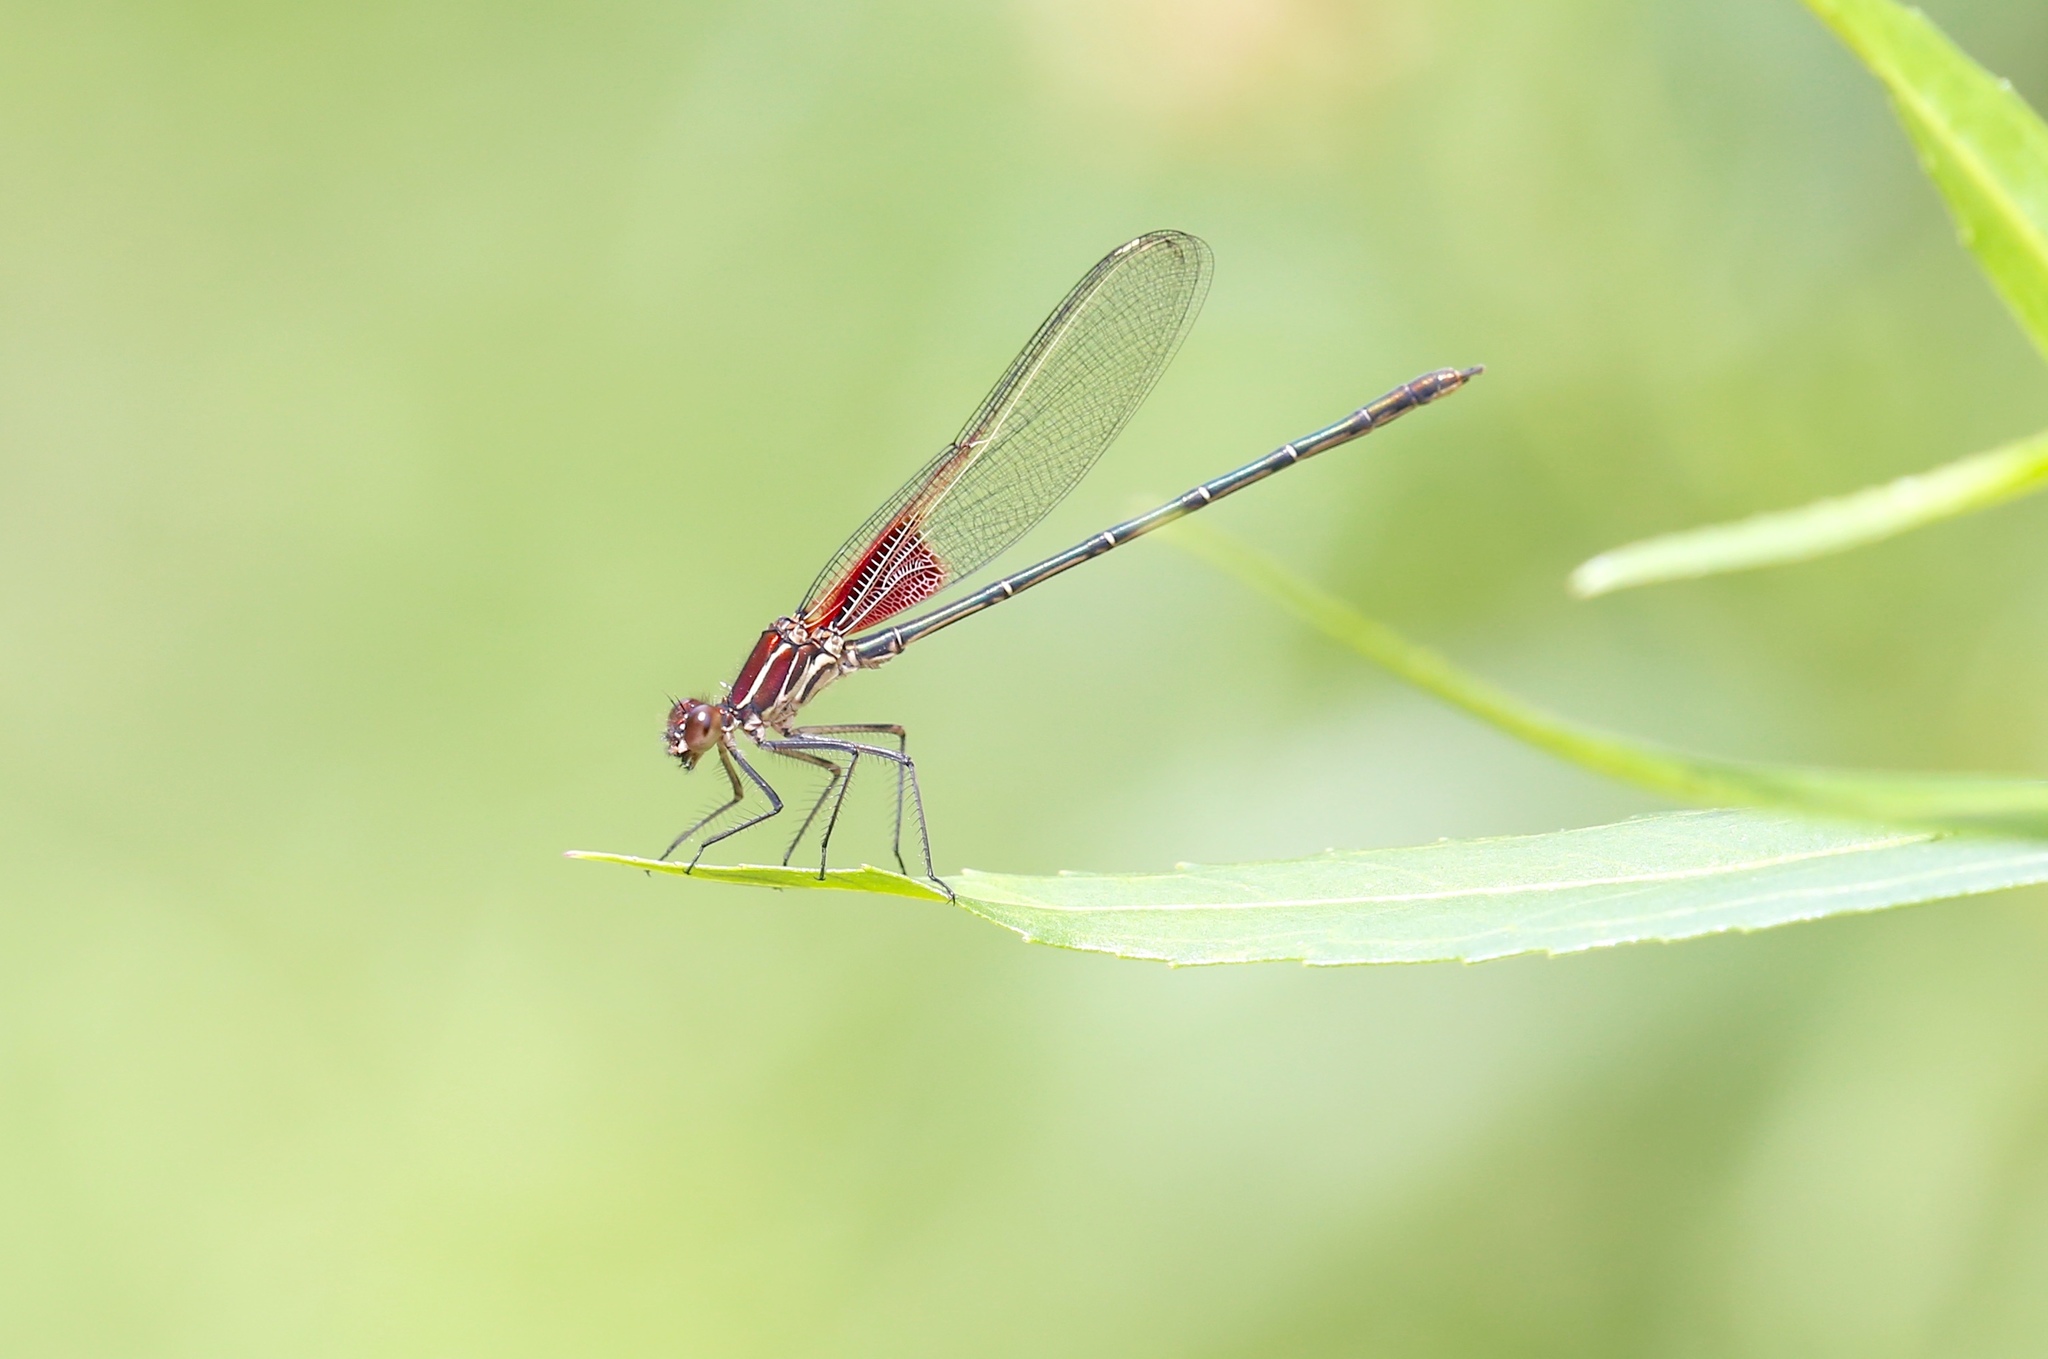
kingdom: Animalia
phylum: Arthropoda
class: Insecta
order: Odonata
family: Calopterygidae
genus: Hetaerina
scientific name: Hetaerina americana
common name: American rubyspot
